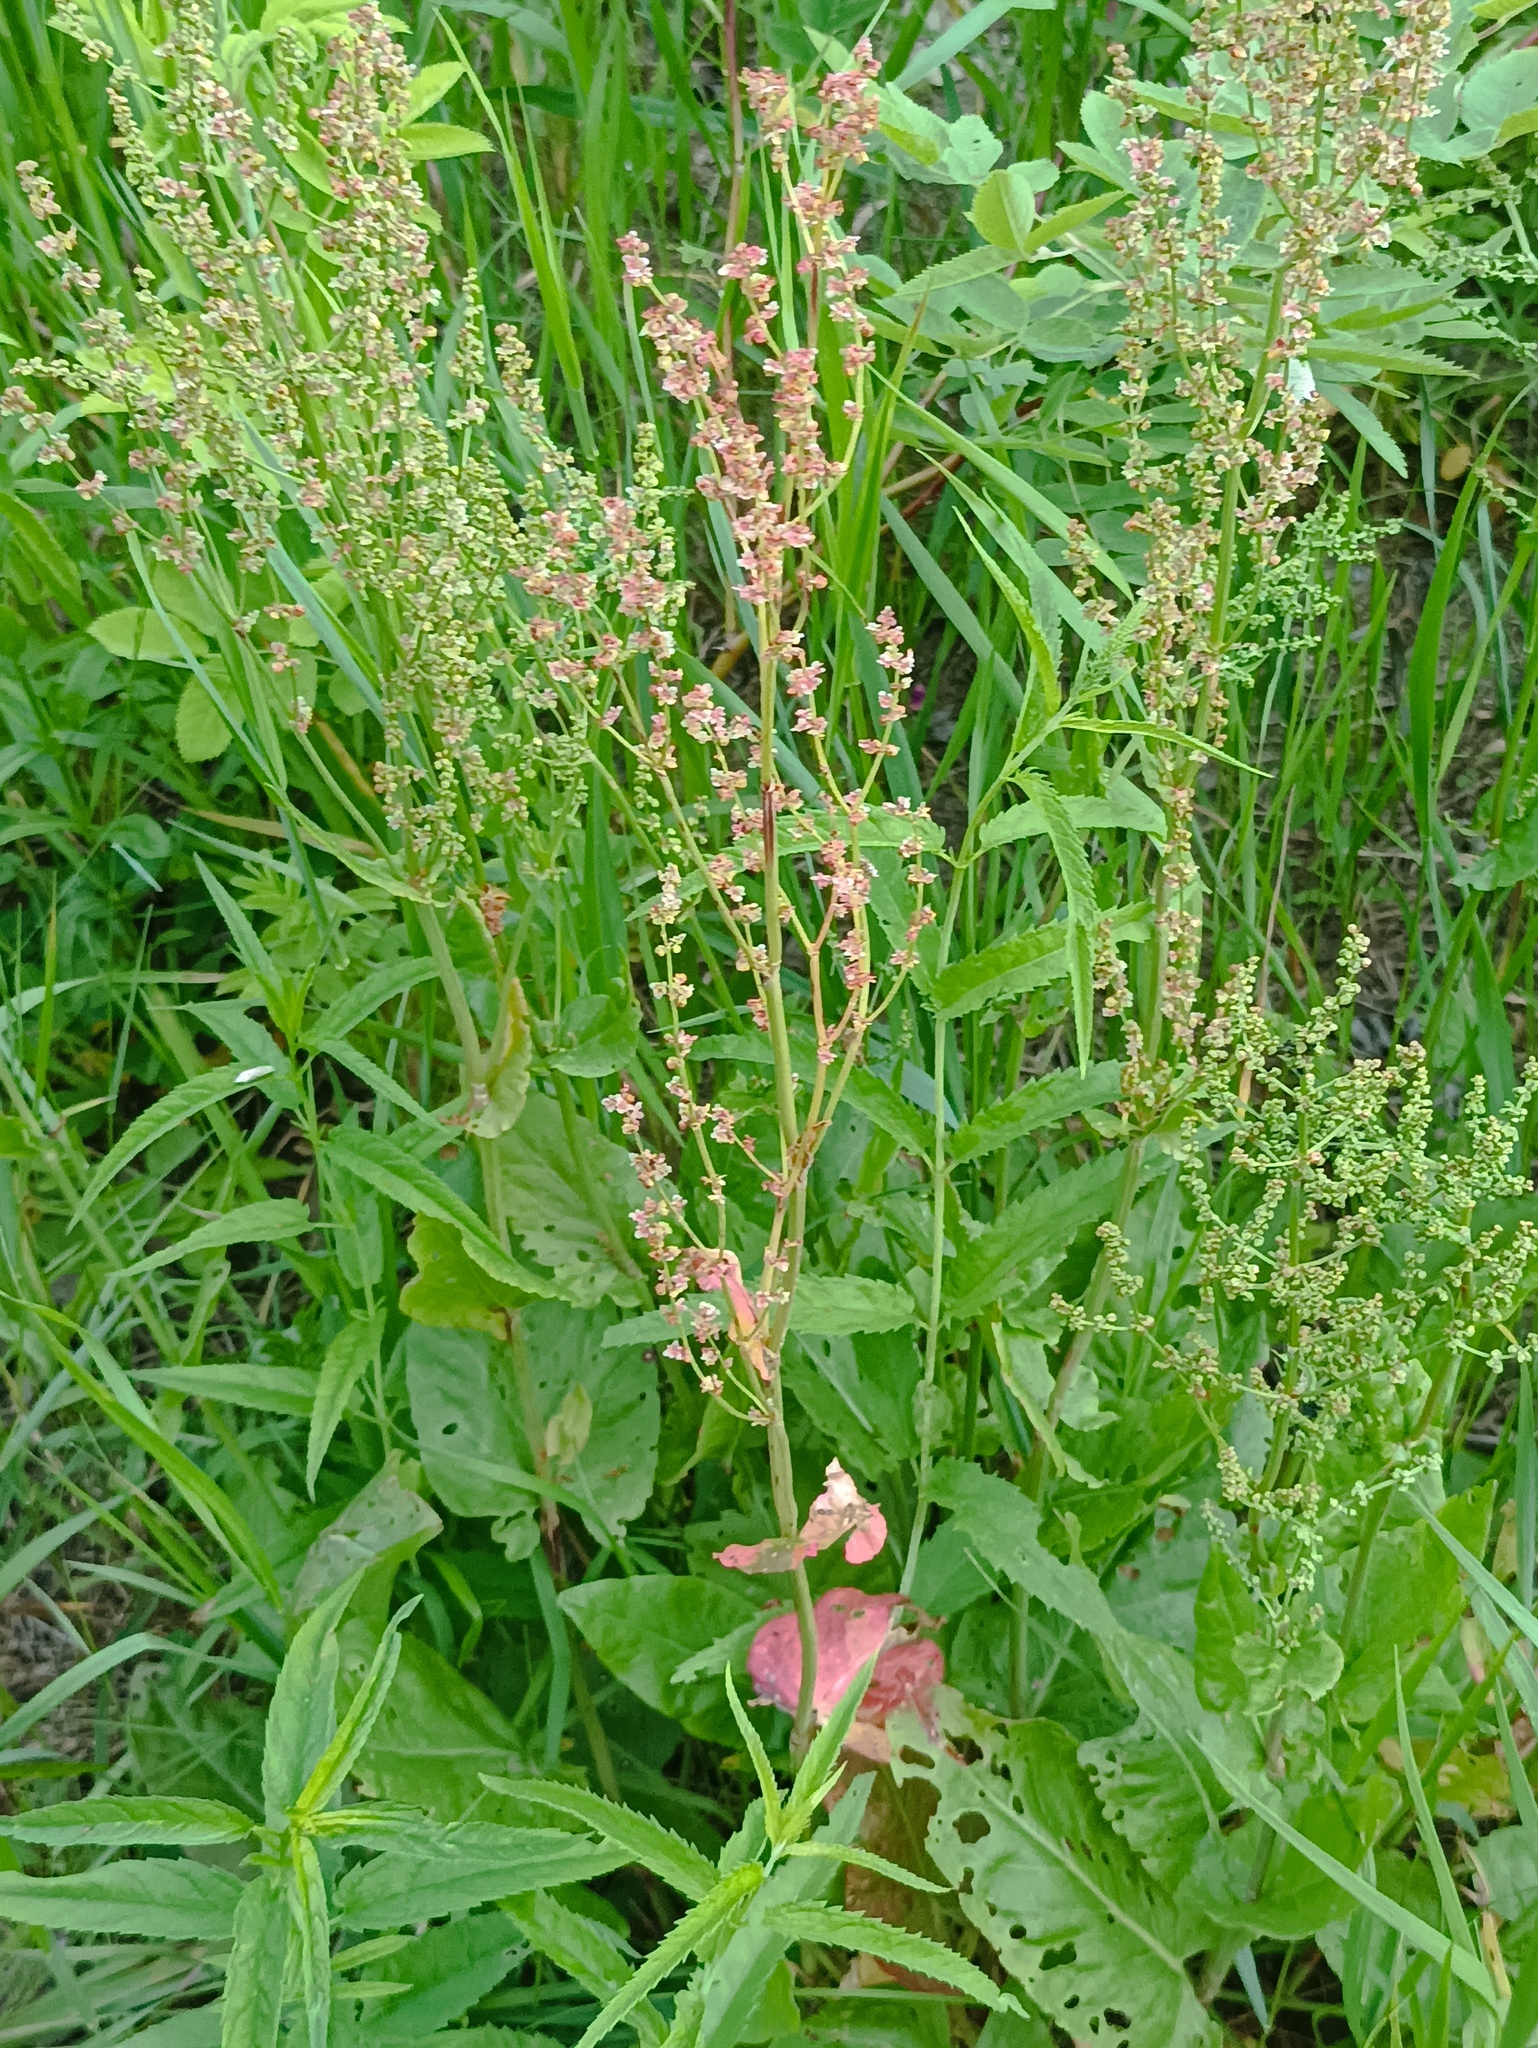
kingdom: Plantae
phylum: Tracheophyta
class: Magnoliopsida
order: Caryophyllales
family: Polygonaceae
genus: Rumex
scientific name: Rumex acetosa
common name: Garden sorrel
